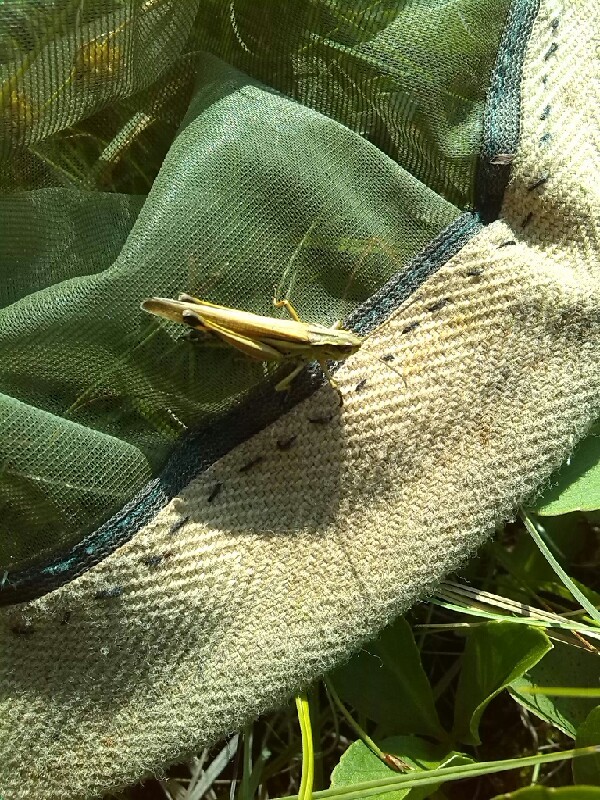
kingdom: Animalia
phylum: Arthropoda
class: Insecta
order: Orthoptera
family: Acrididae
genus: Stethophyma
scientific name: Stethophyma grossum
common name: Large marsh grasshopper
